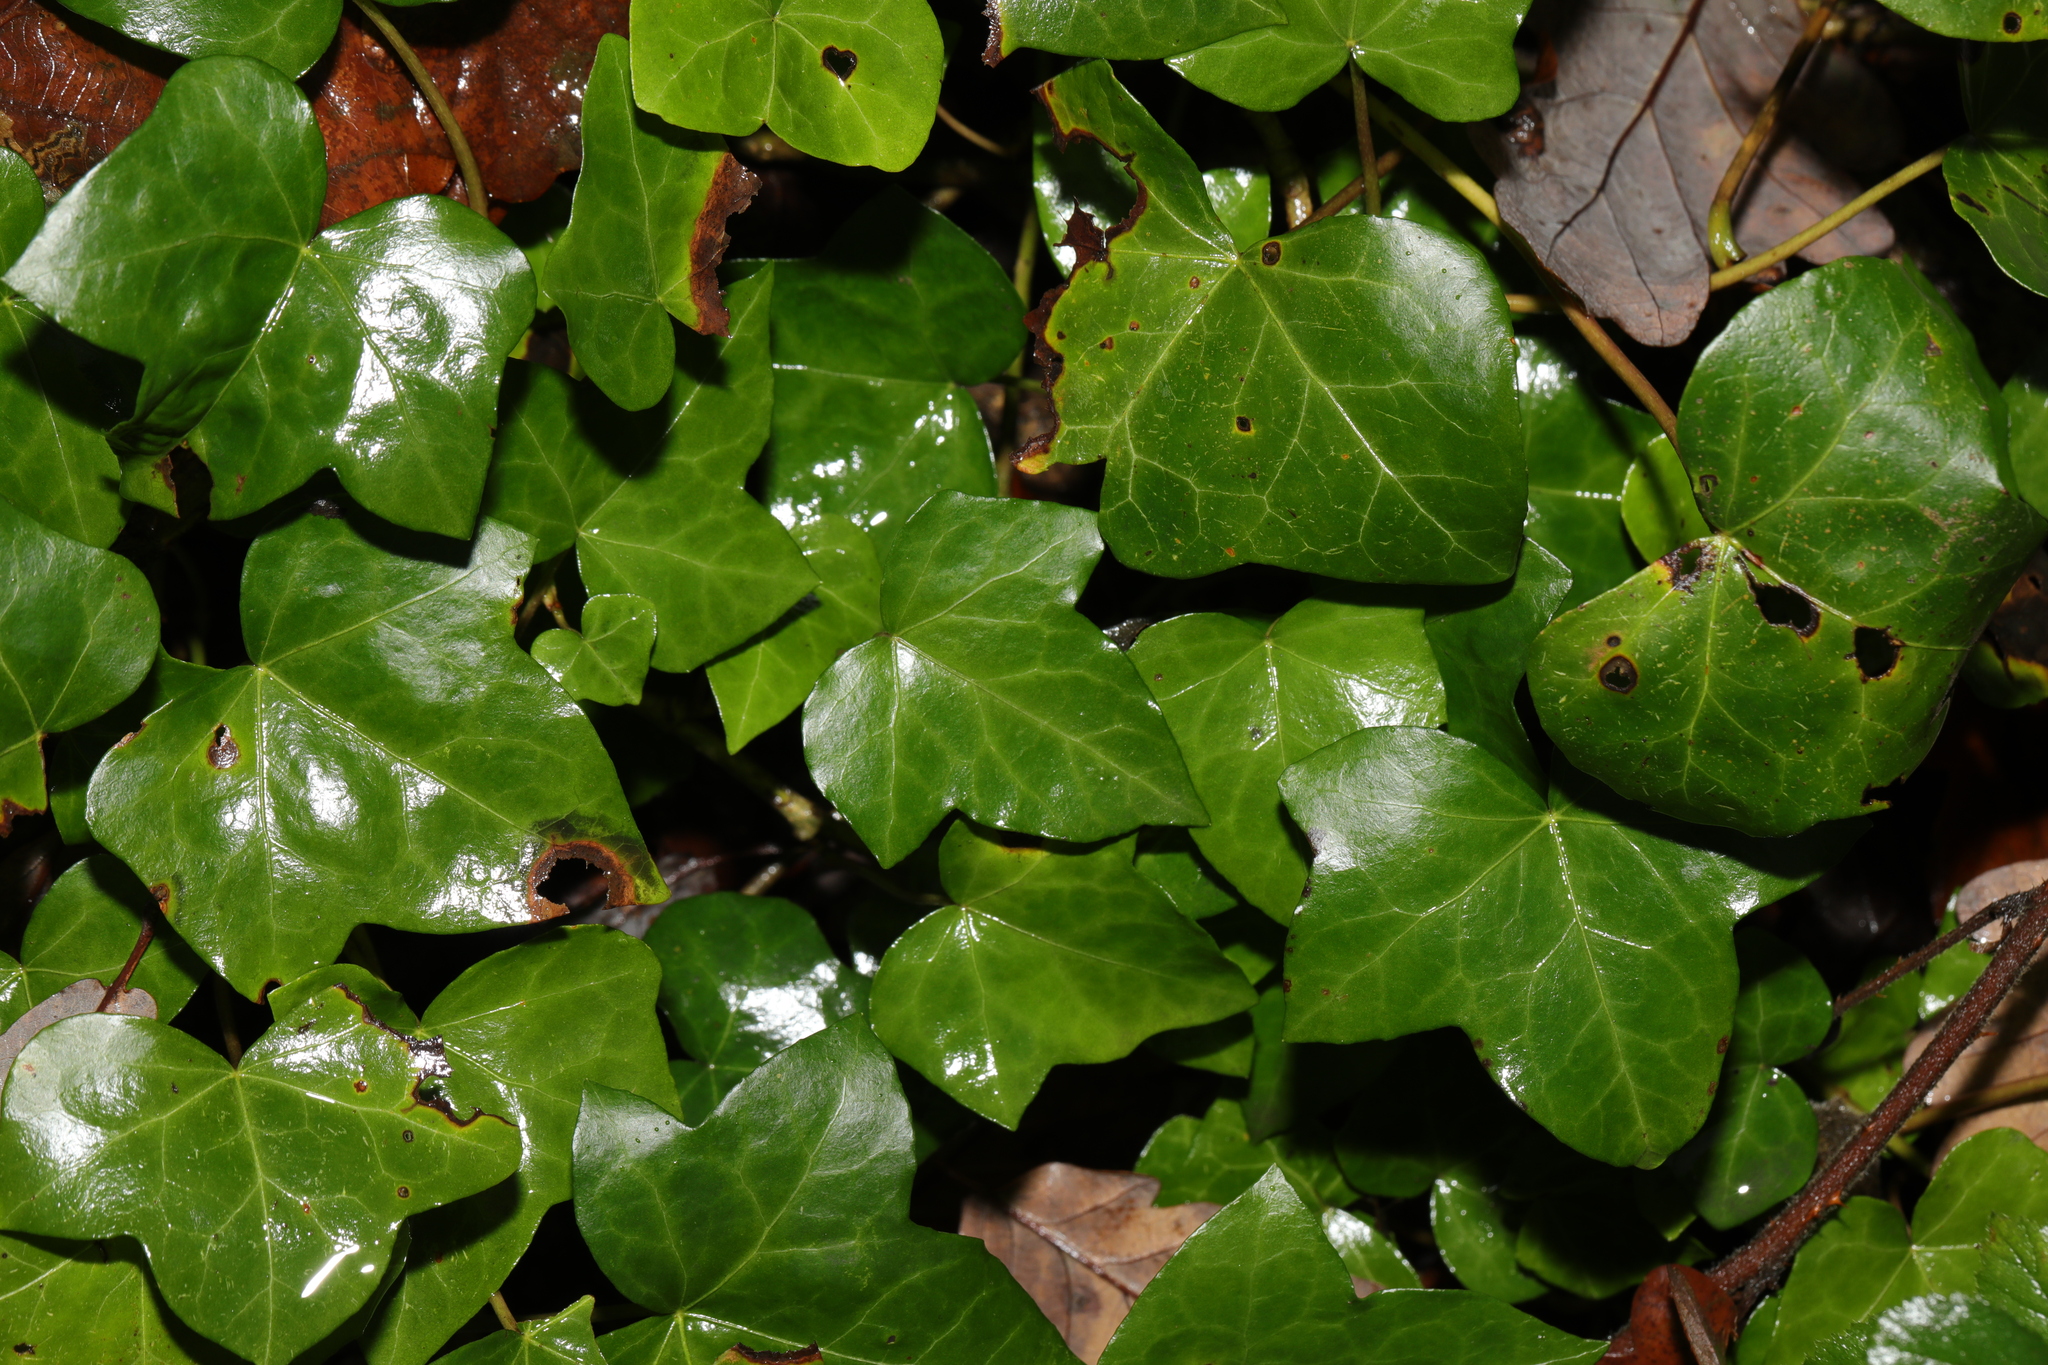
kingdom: Plantae
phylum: Tracheophyta
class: Magnoliopsida
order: Apiales
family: Araliaceae
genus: Hedera
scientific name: Hedera helix
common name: Ivy
